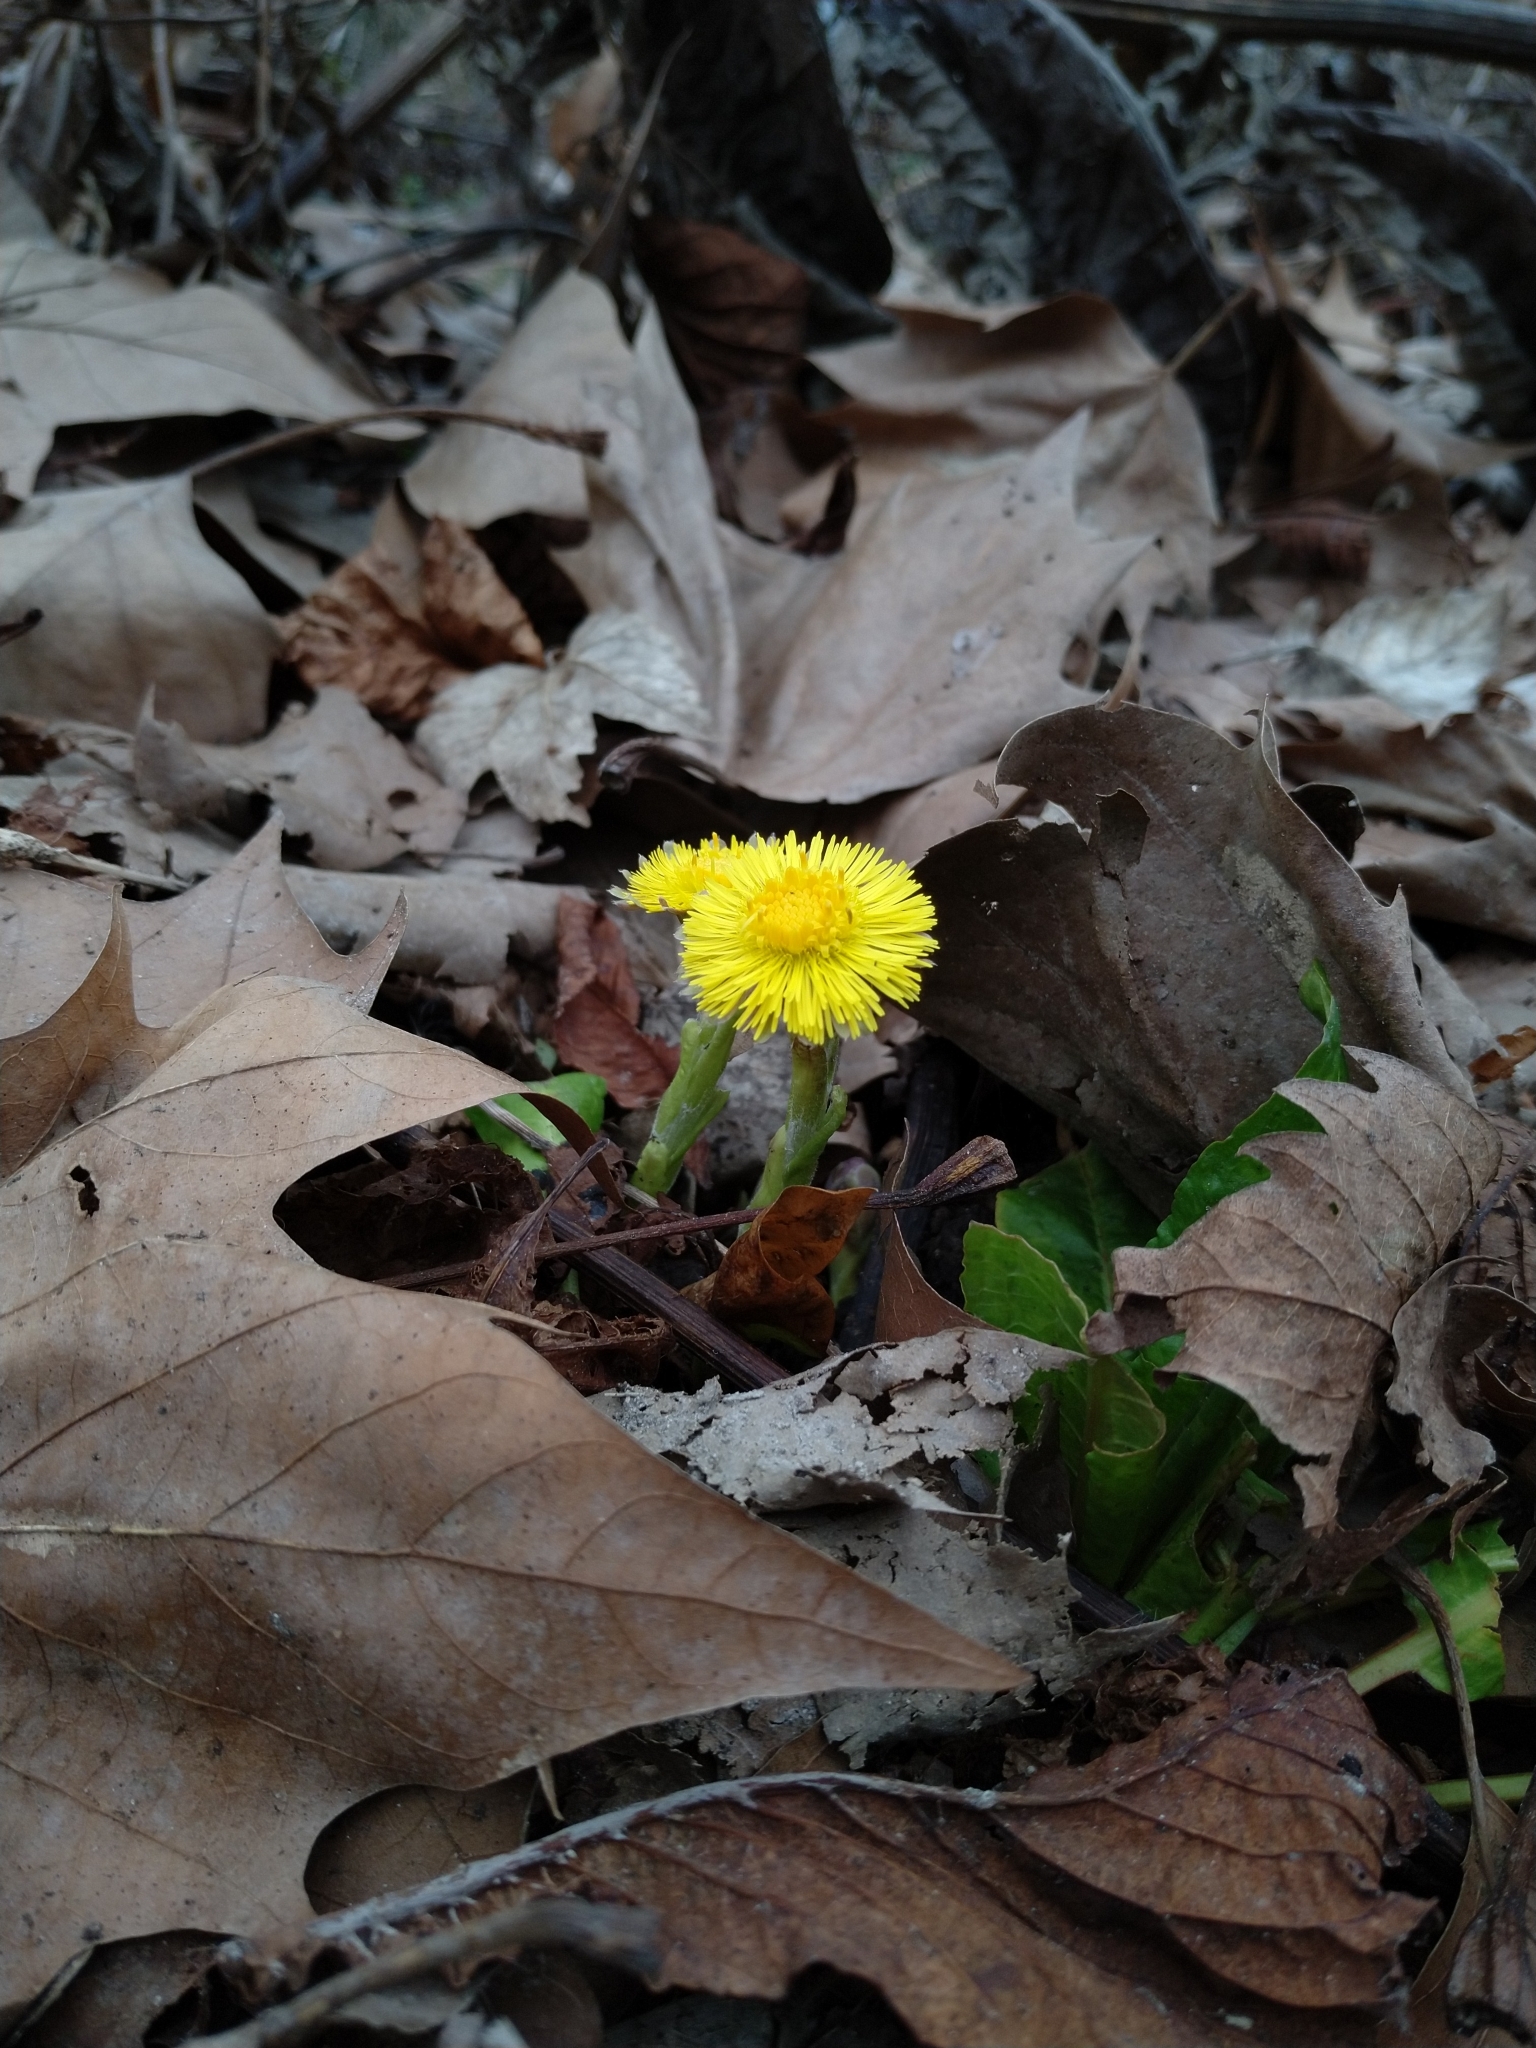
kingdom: Plantae
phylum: Tracheophyta
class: Magnoliopsida
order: Asterales
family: Asteraceae
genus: Tussilago
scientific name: Tussilago farfara
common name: Coltsfoot
